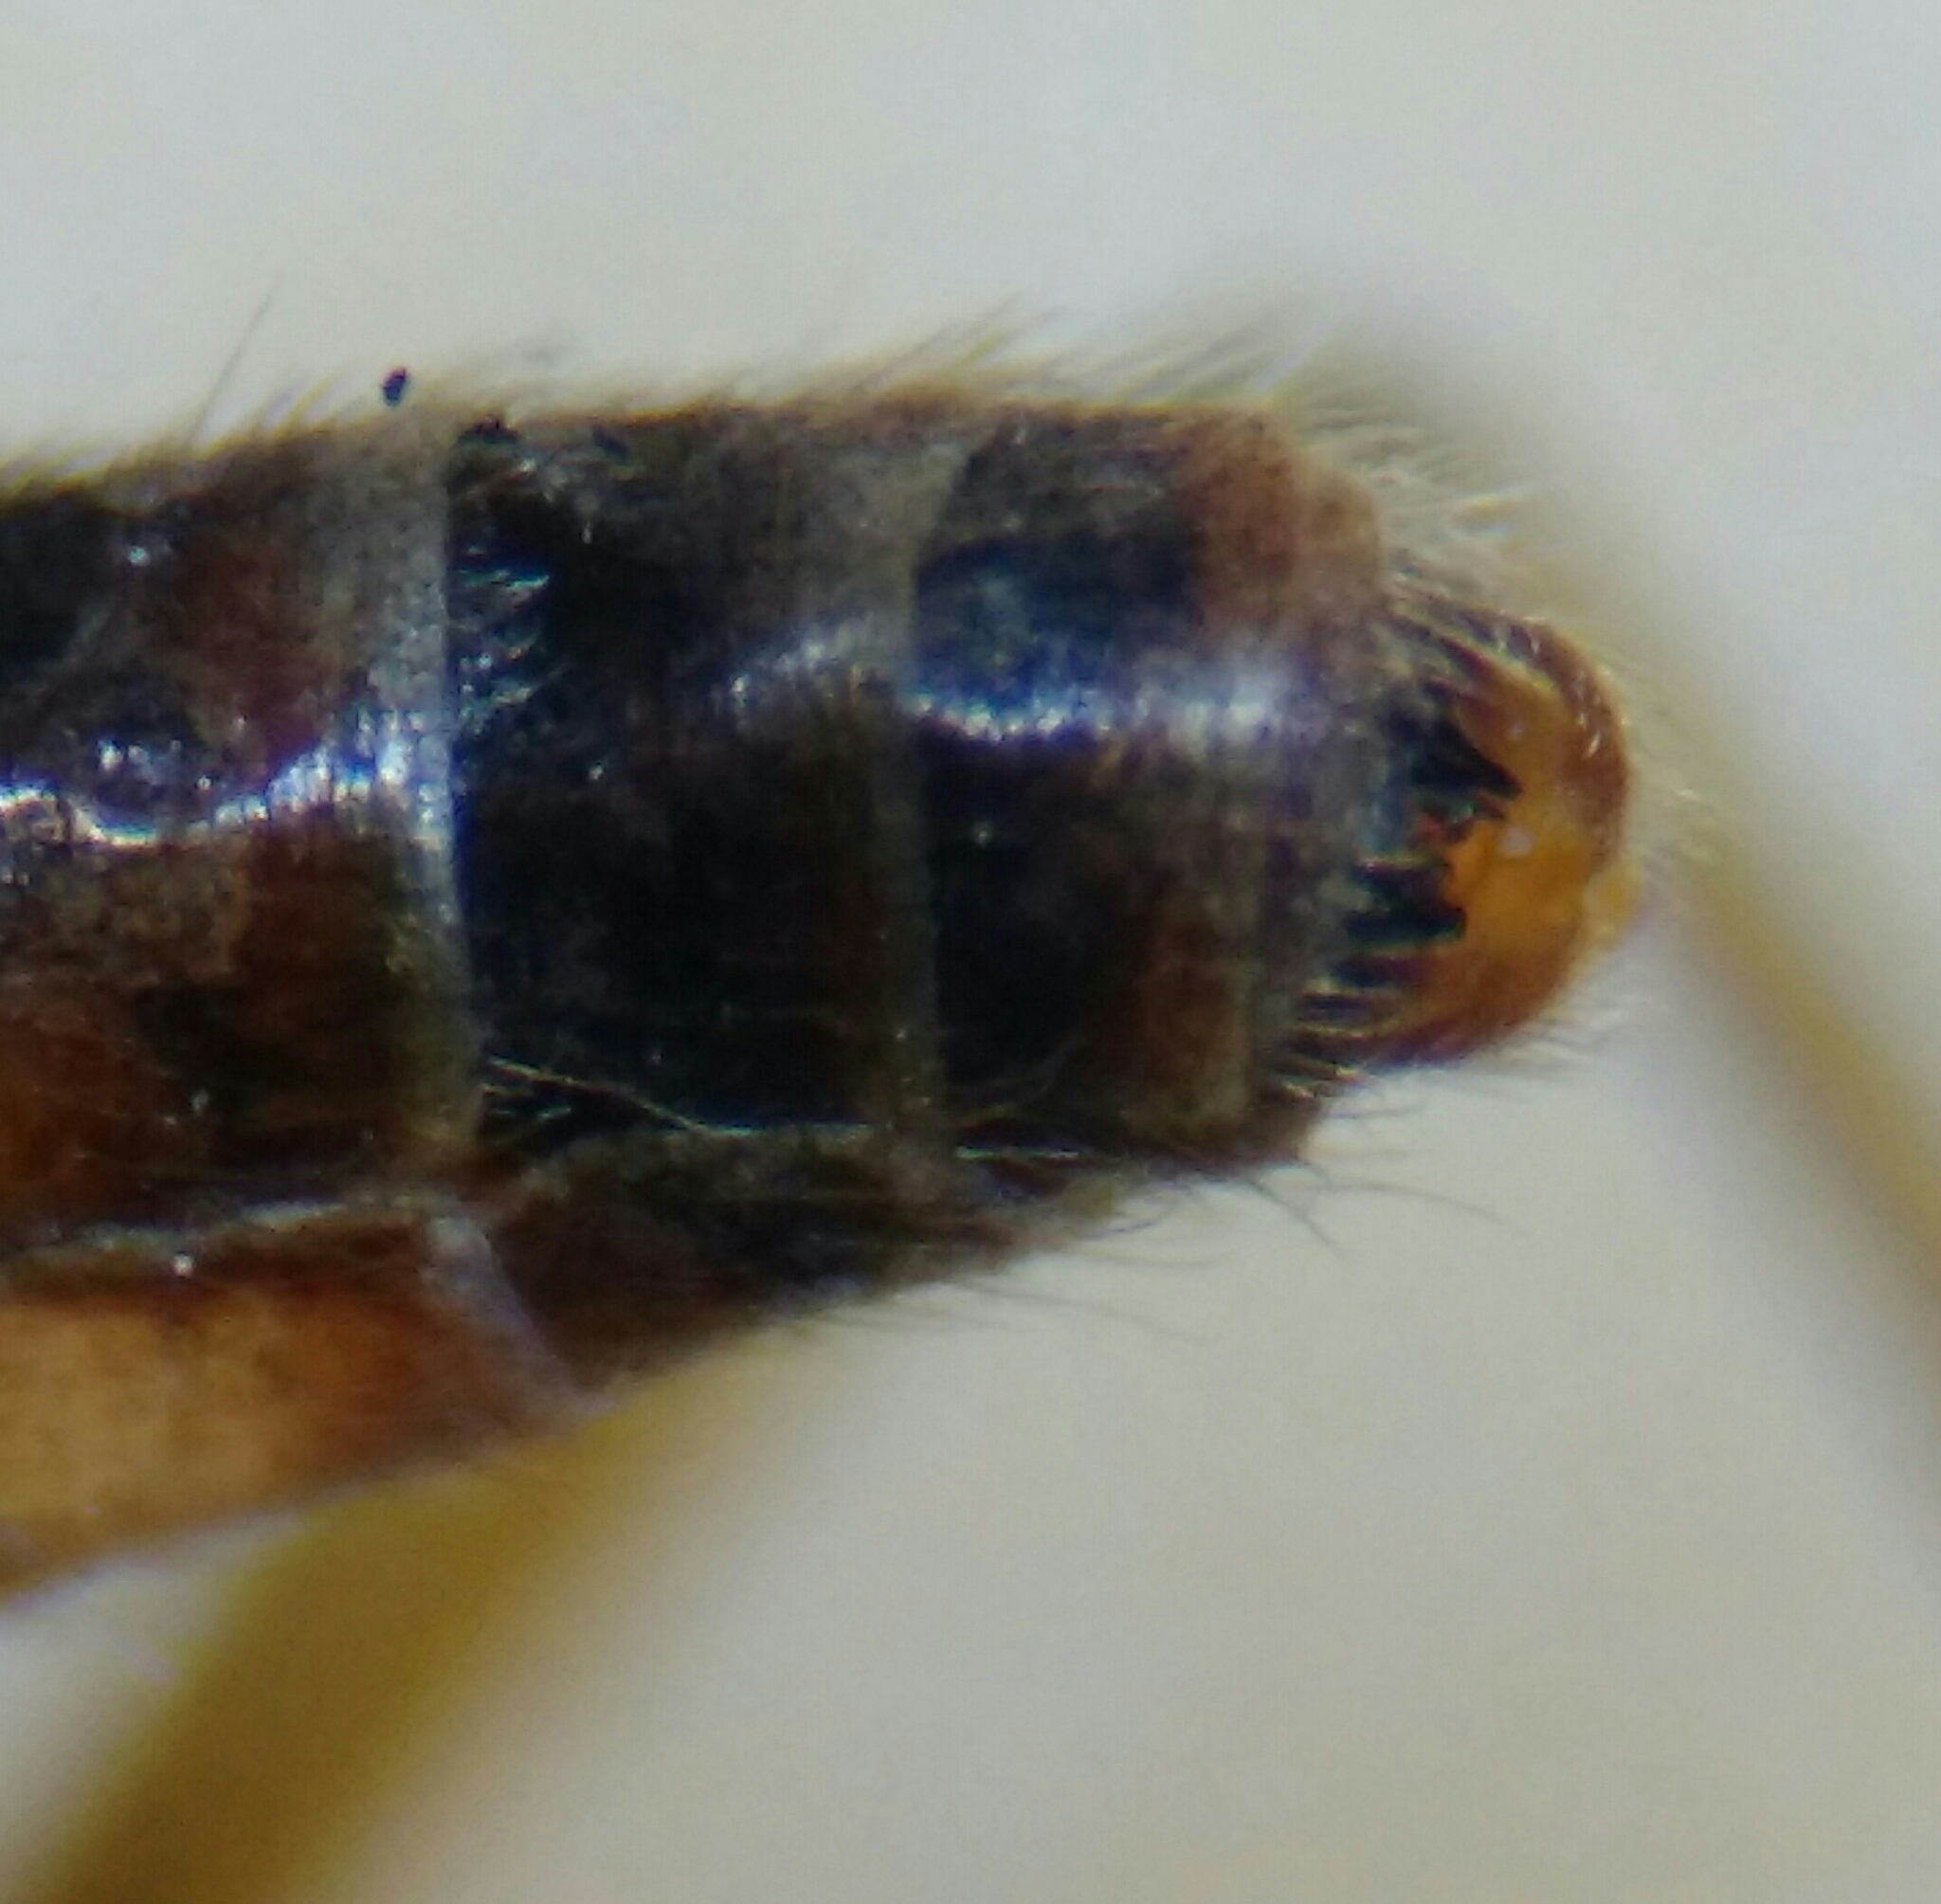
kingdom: Animalia
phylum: Arthropoda
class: Insecta
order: Diptera
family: Anisopodidae
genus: Sylvicola
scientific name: Sylvicola cinctus
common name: Wood gnat
